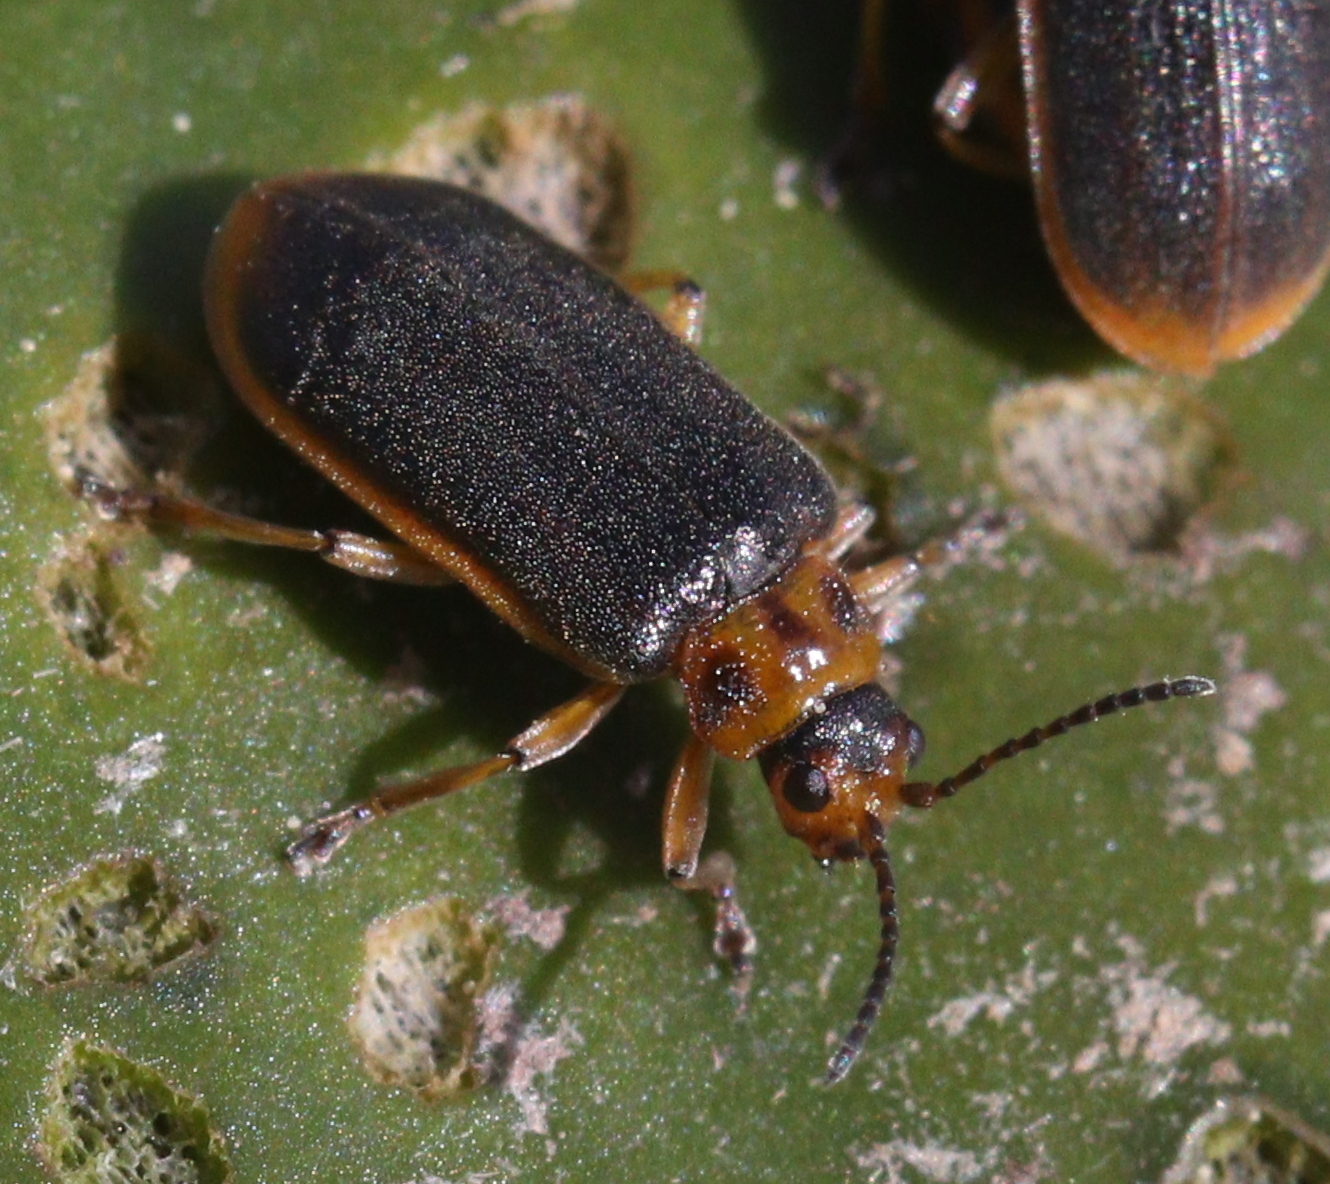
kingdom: Animalia
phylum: Arthropoda
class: Insecta
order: Coleoptera
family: Chrysomelidae
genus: Galerucella
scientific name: Galerucella nymphaeae
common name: Leaf beetle
